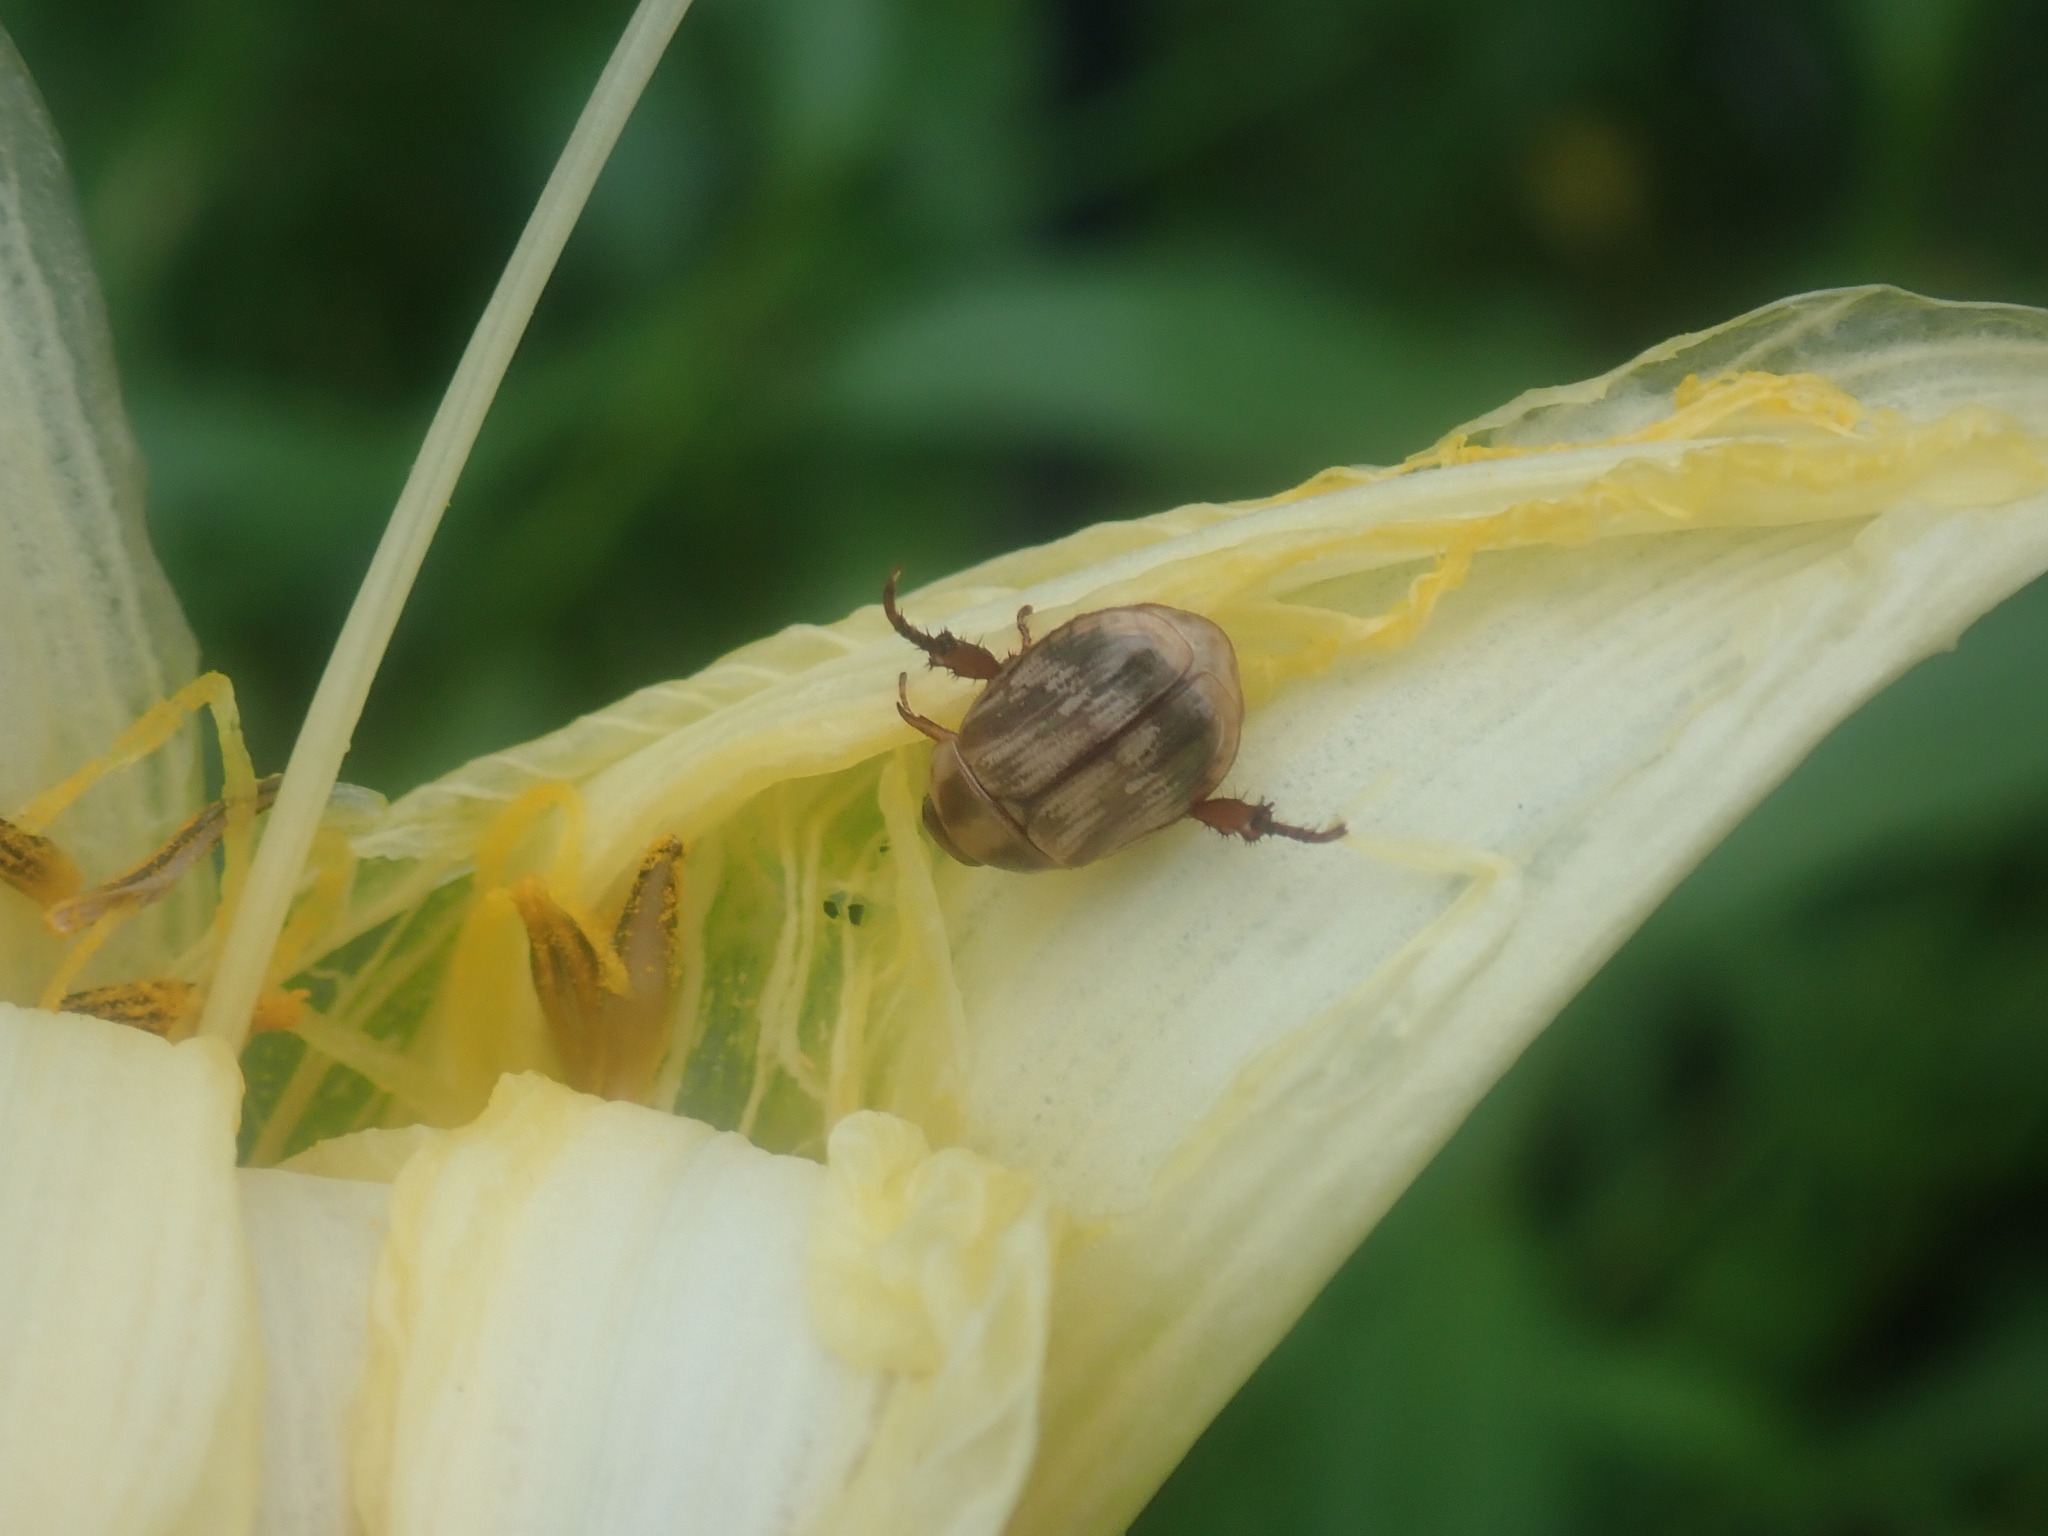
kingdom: Animalia
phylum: Arthropoda
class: Insecta
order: Coleoptera
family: Scarabaeidae
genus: Exomala
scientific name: Exomala orientalis
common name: Oriental beetle
